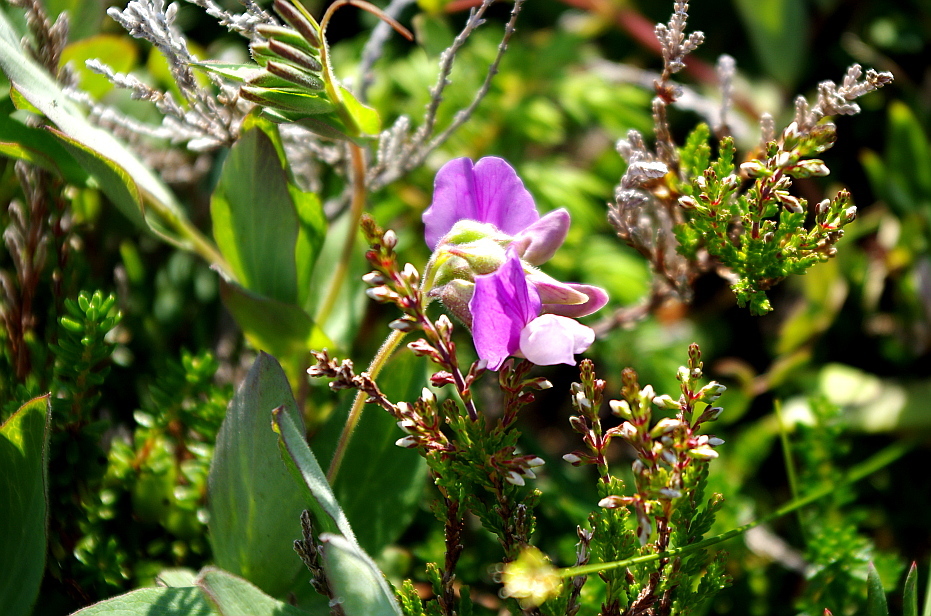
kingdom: Plantae
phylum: Tracheophyta
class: Magnoliopsida
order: Fabales
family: Fabaceae
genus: Lathyrus
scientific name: Lathyrus japonicus
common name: Sea pea
